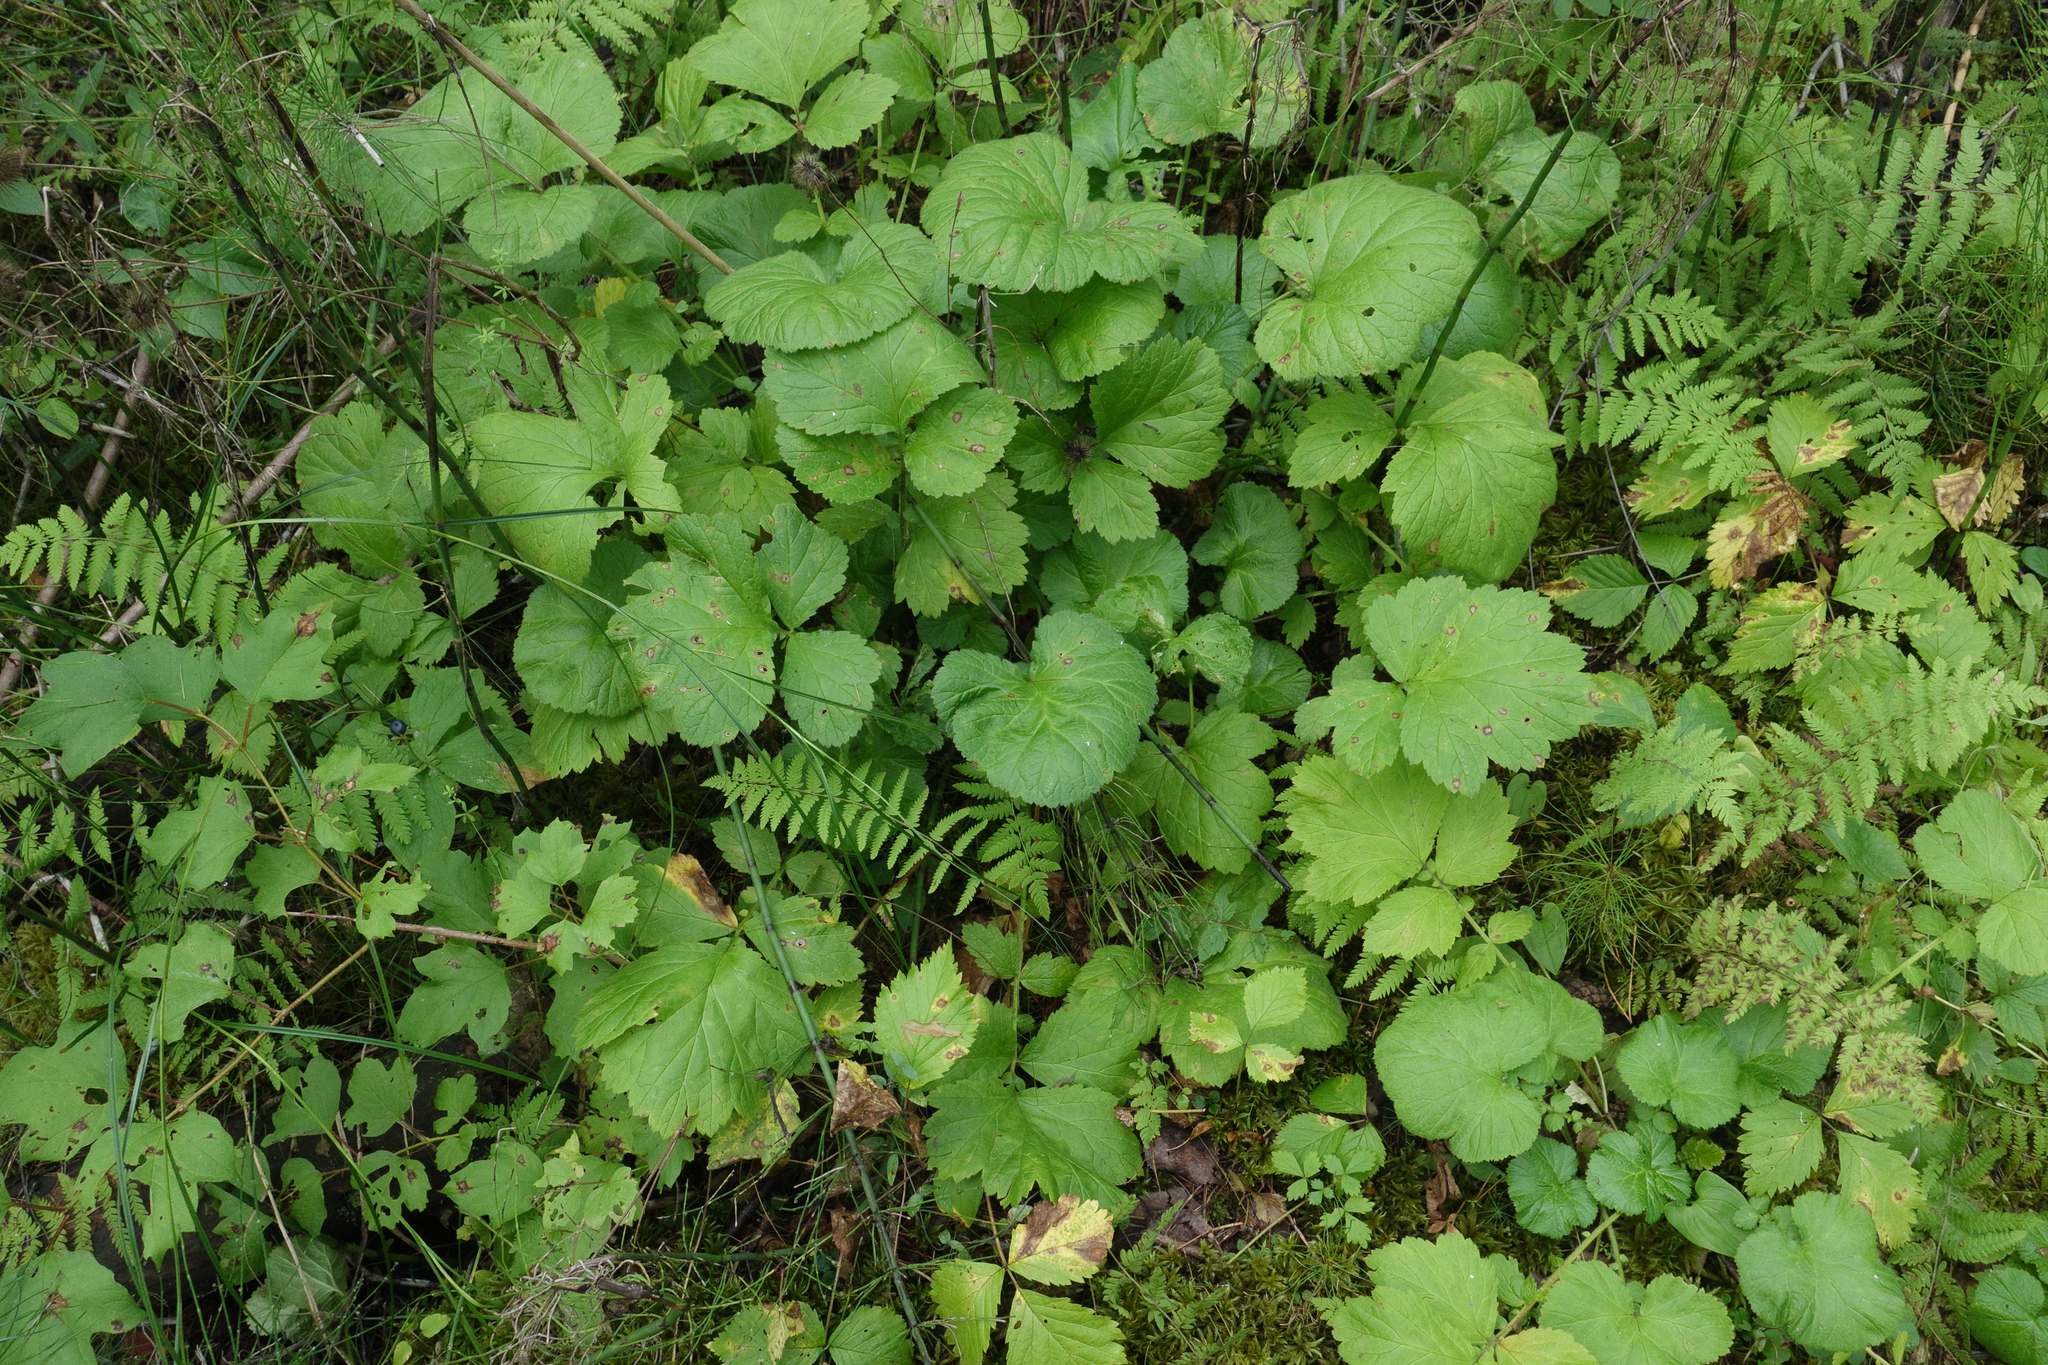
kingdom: Plantae
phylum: Tracheophyta
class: Magnoliopsida
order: Rosales
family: Rosaceae
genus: Geum
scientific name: Geum rivale
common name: Water avens
